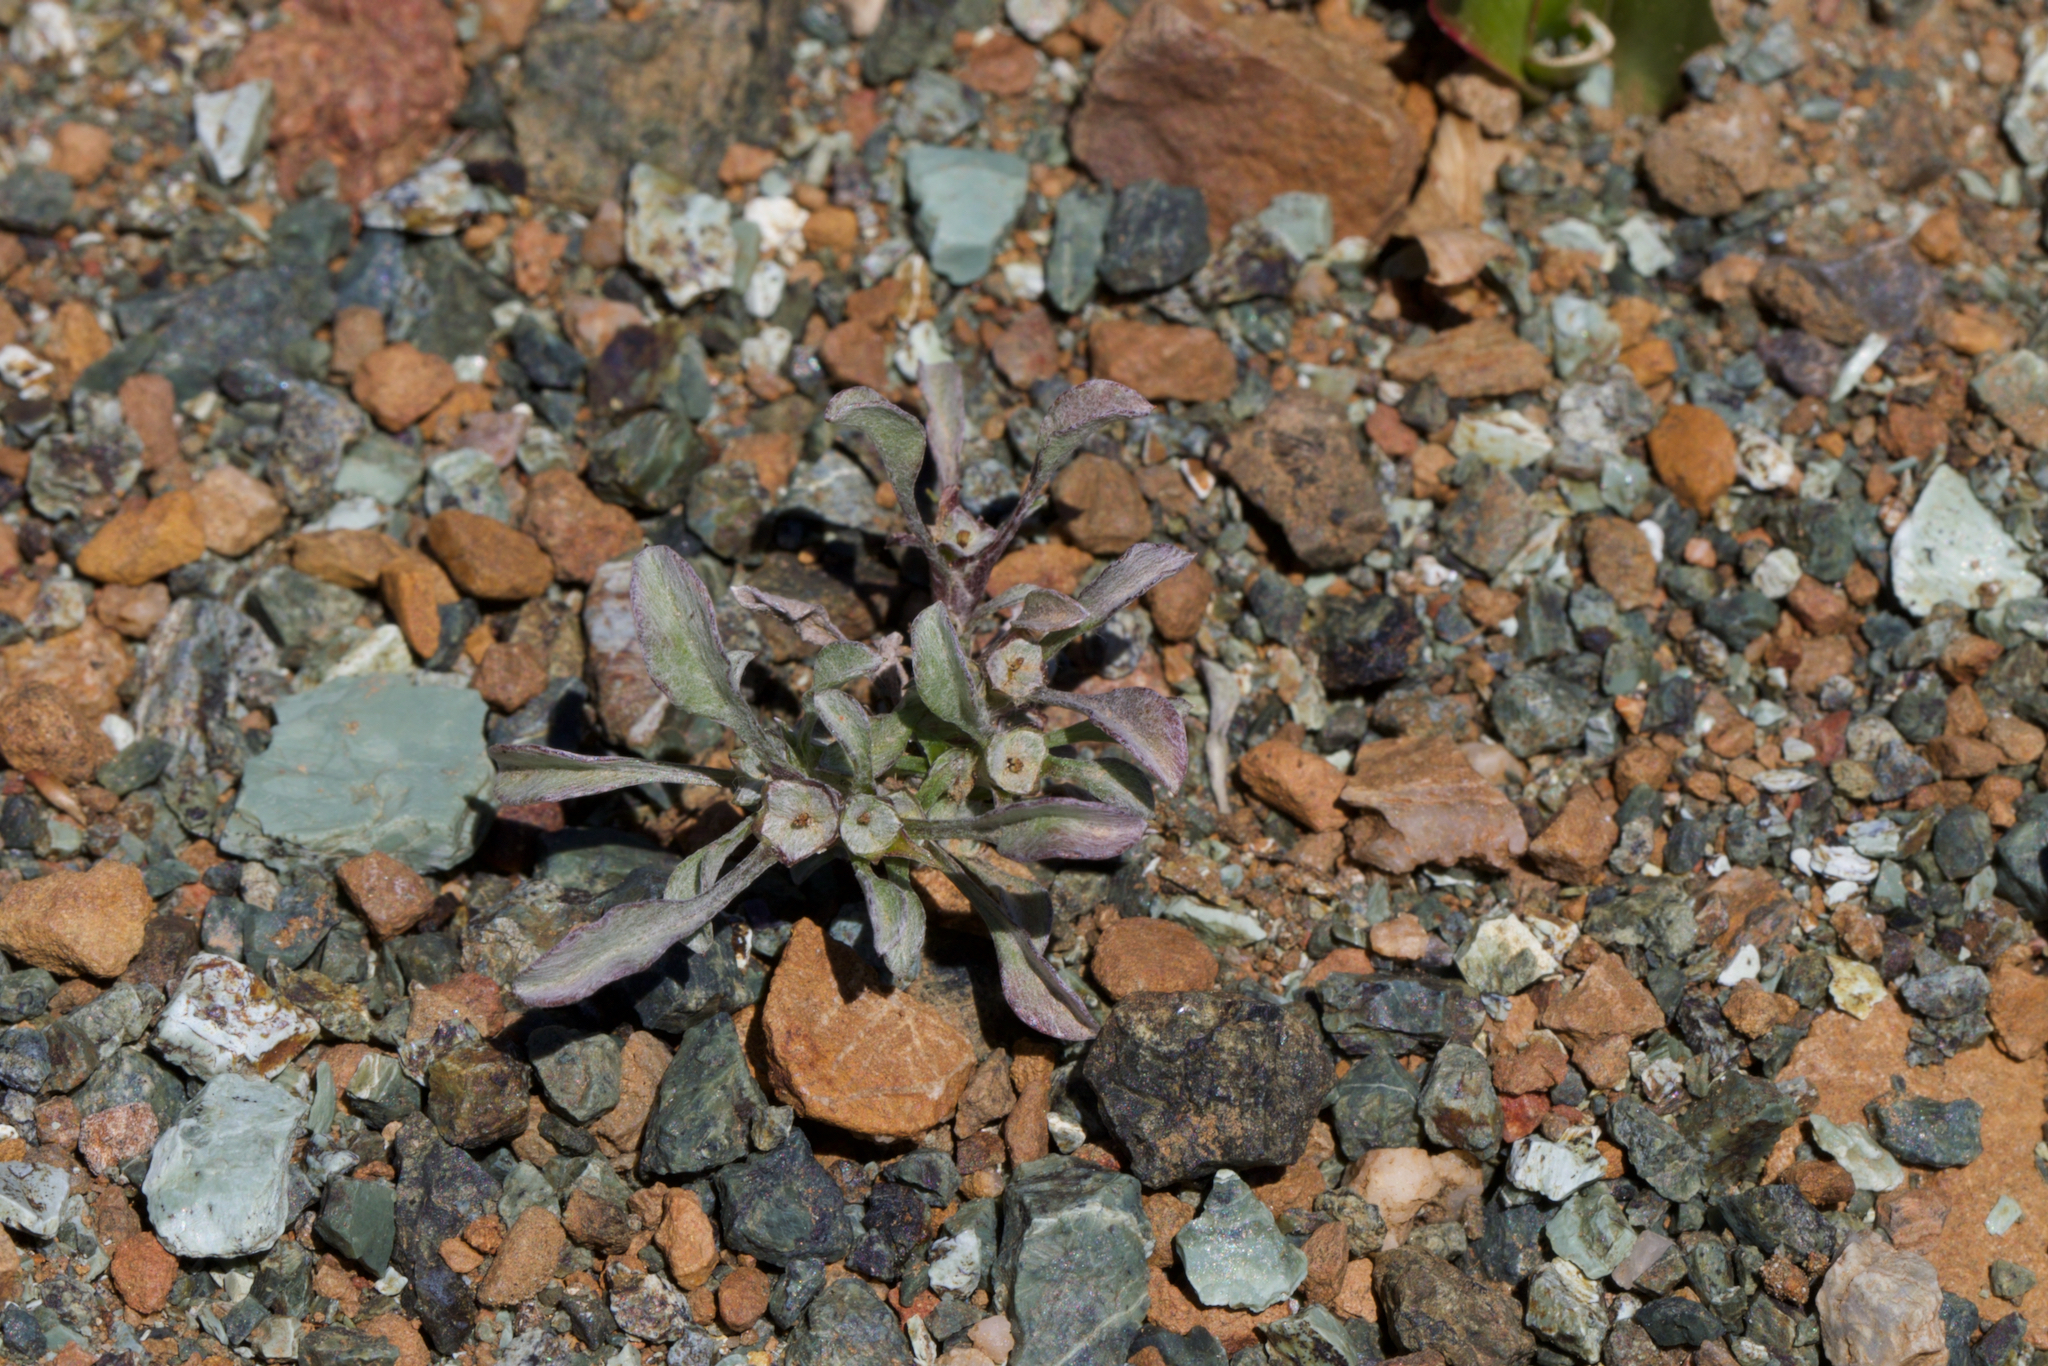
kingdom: Plantae
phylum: Tracheophyta
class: Magnoliopsida
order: Asterales
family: Asteraceae
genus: Hesperevax
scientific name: Hesperevax sparsiflora
